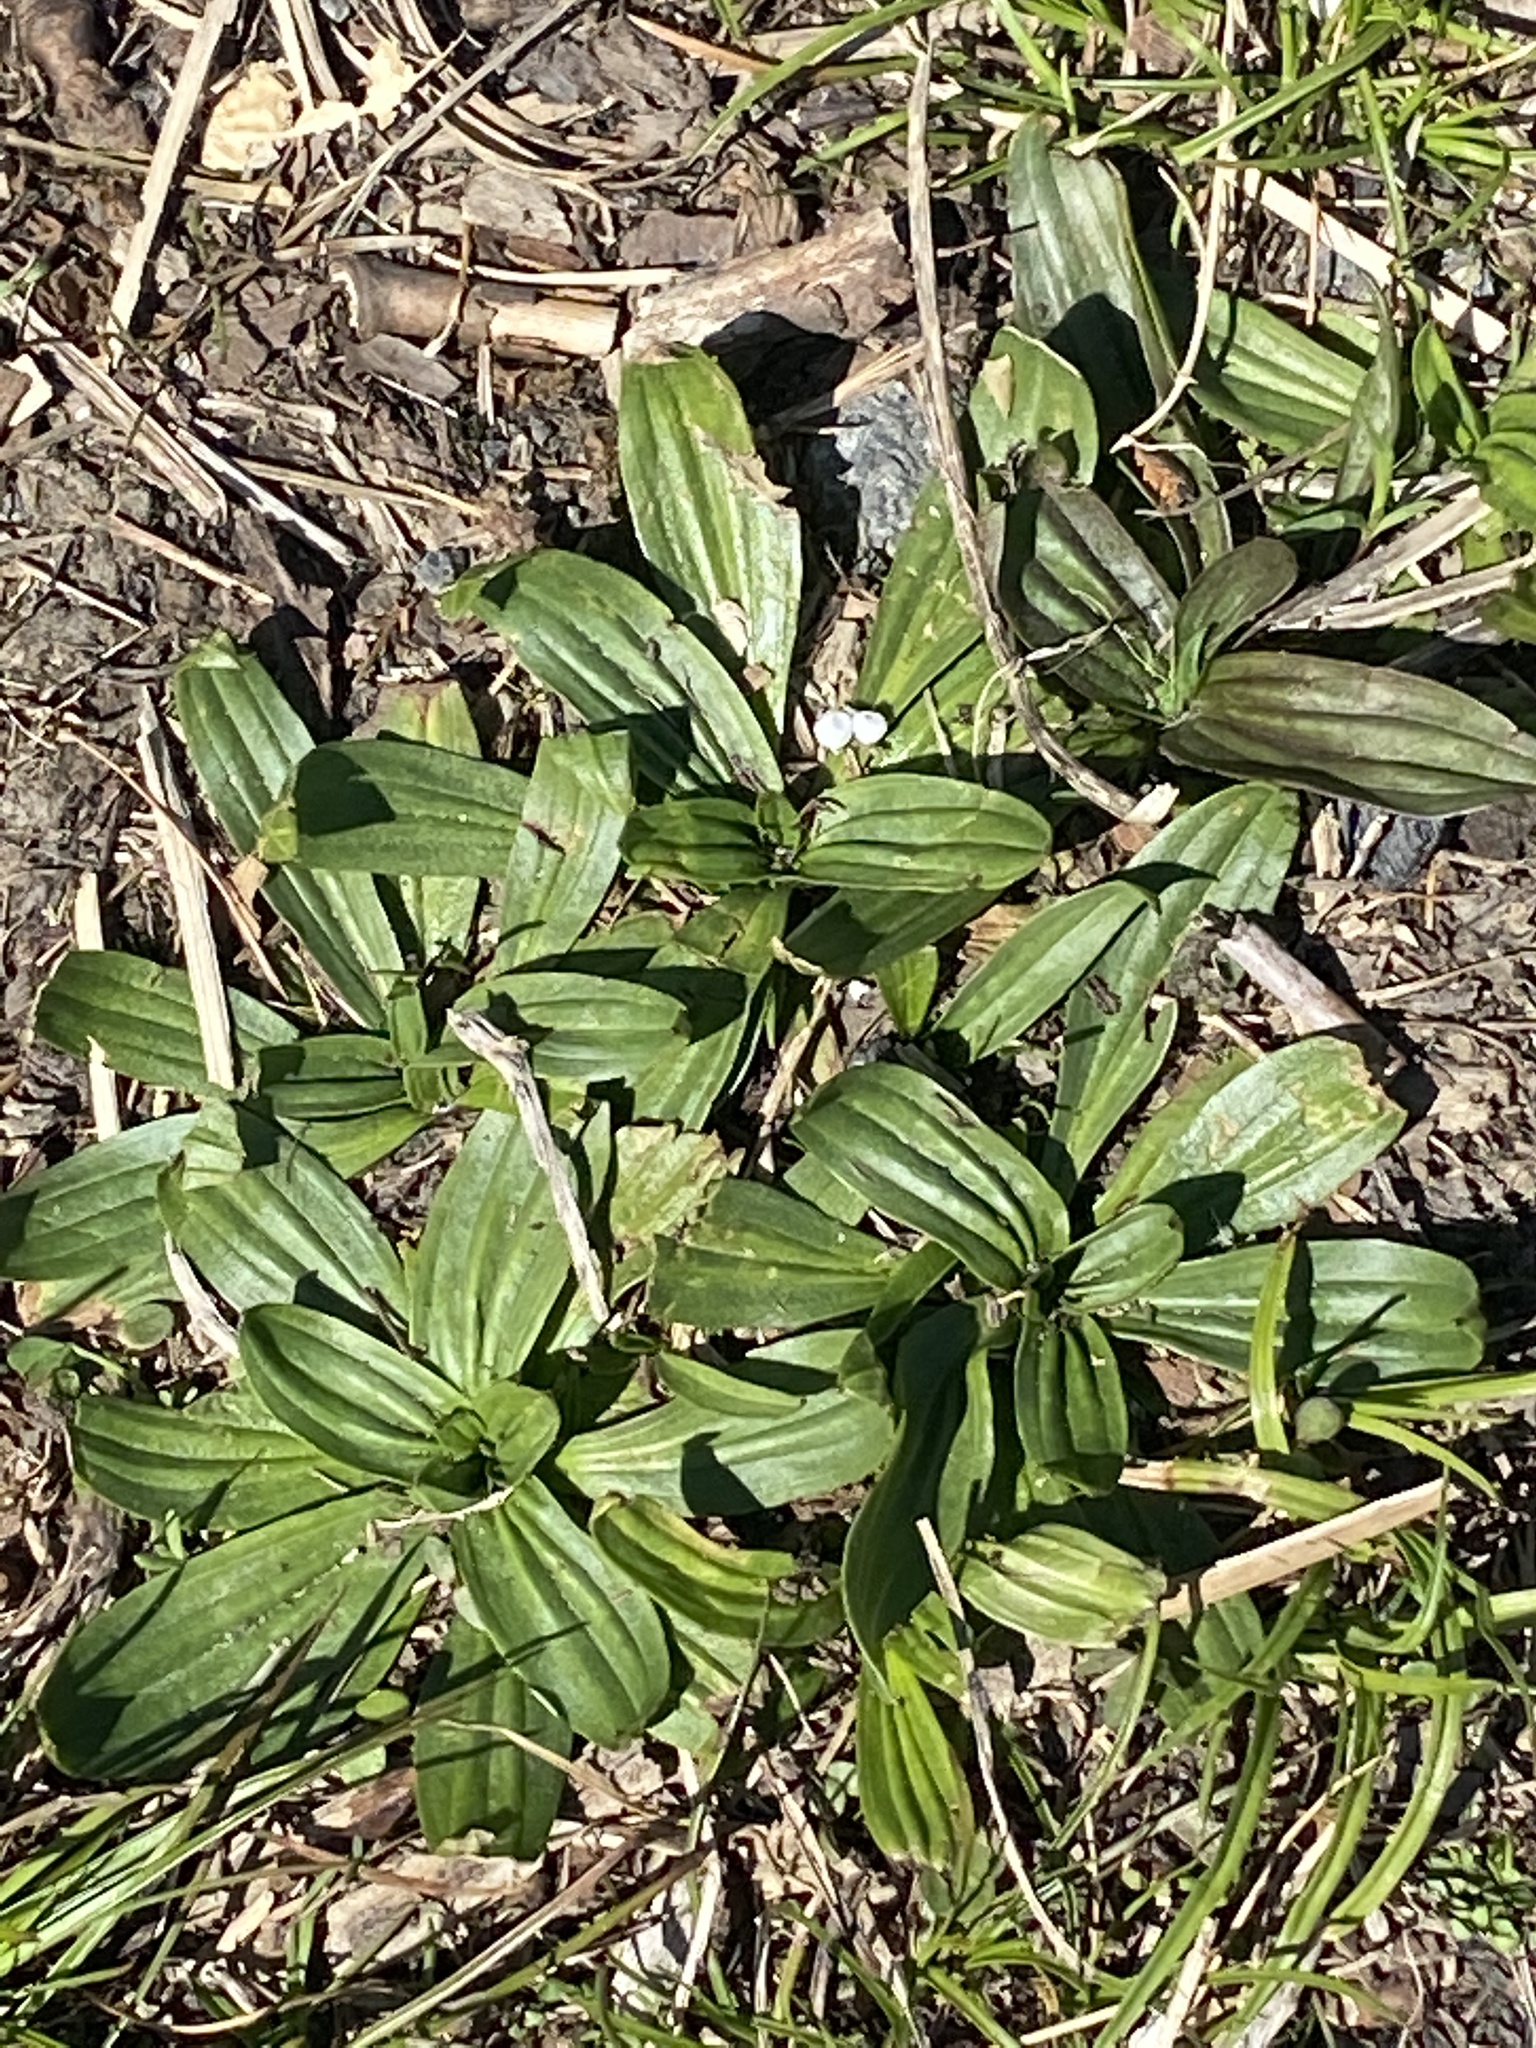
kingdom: Plantae
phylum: Tracheophyta
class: Magnoliopsida
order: Lamiales
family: Plantaginaceae
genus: Plantago
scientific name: Plantago lanceolata
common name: Ribwort plantain
